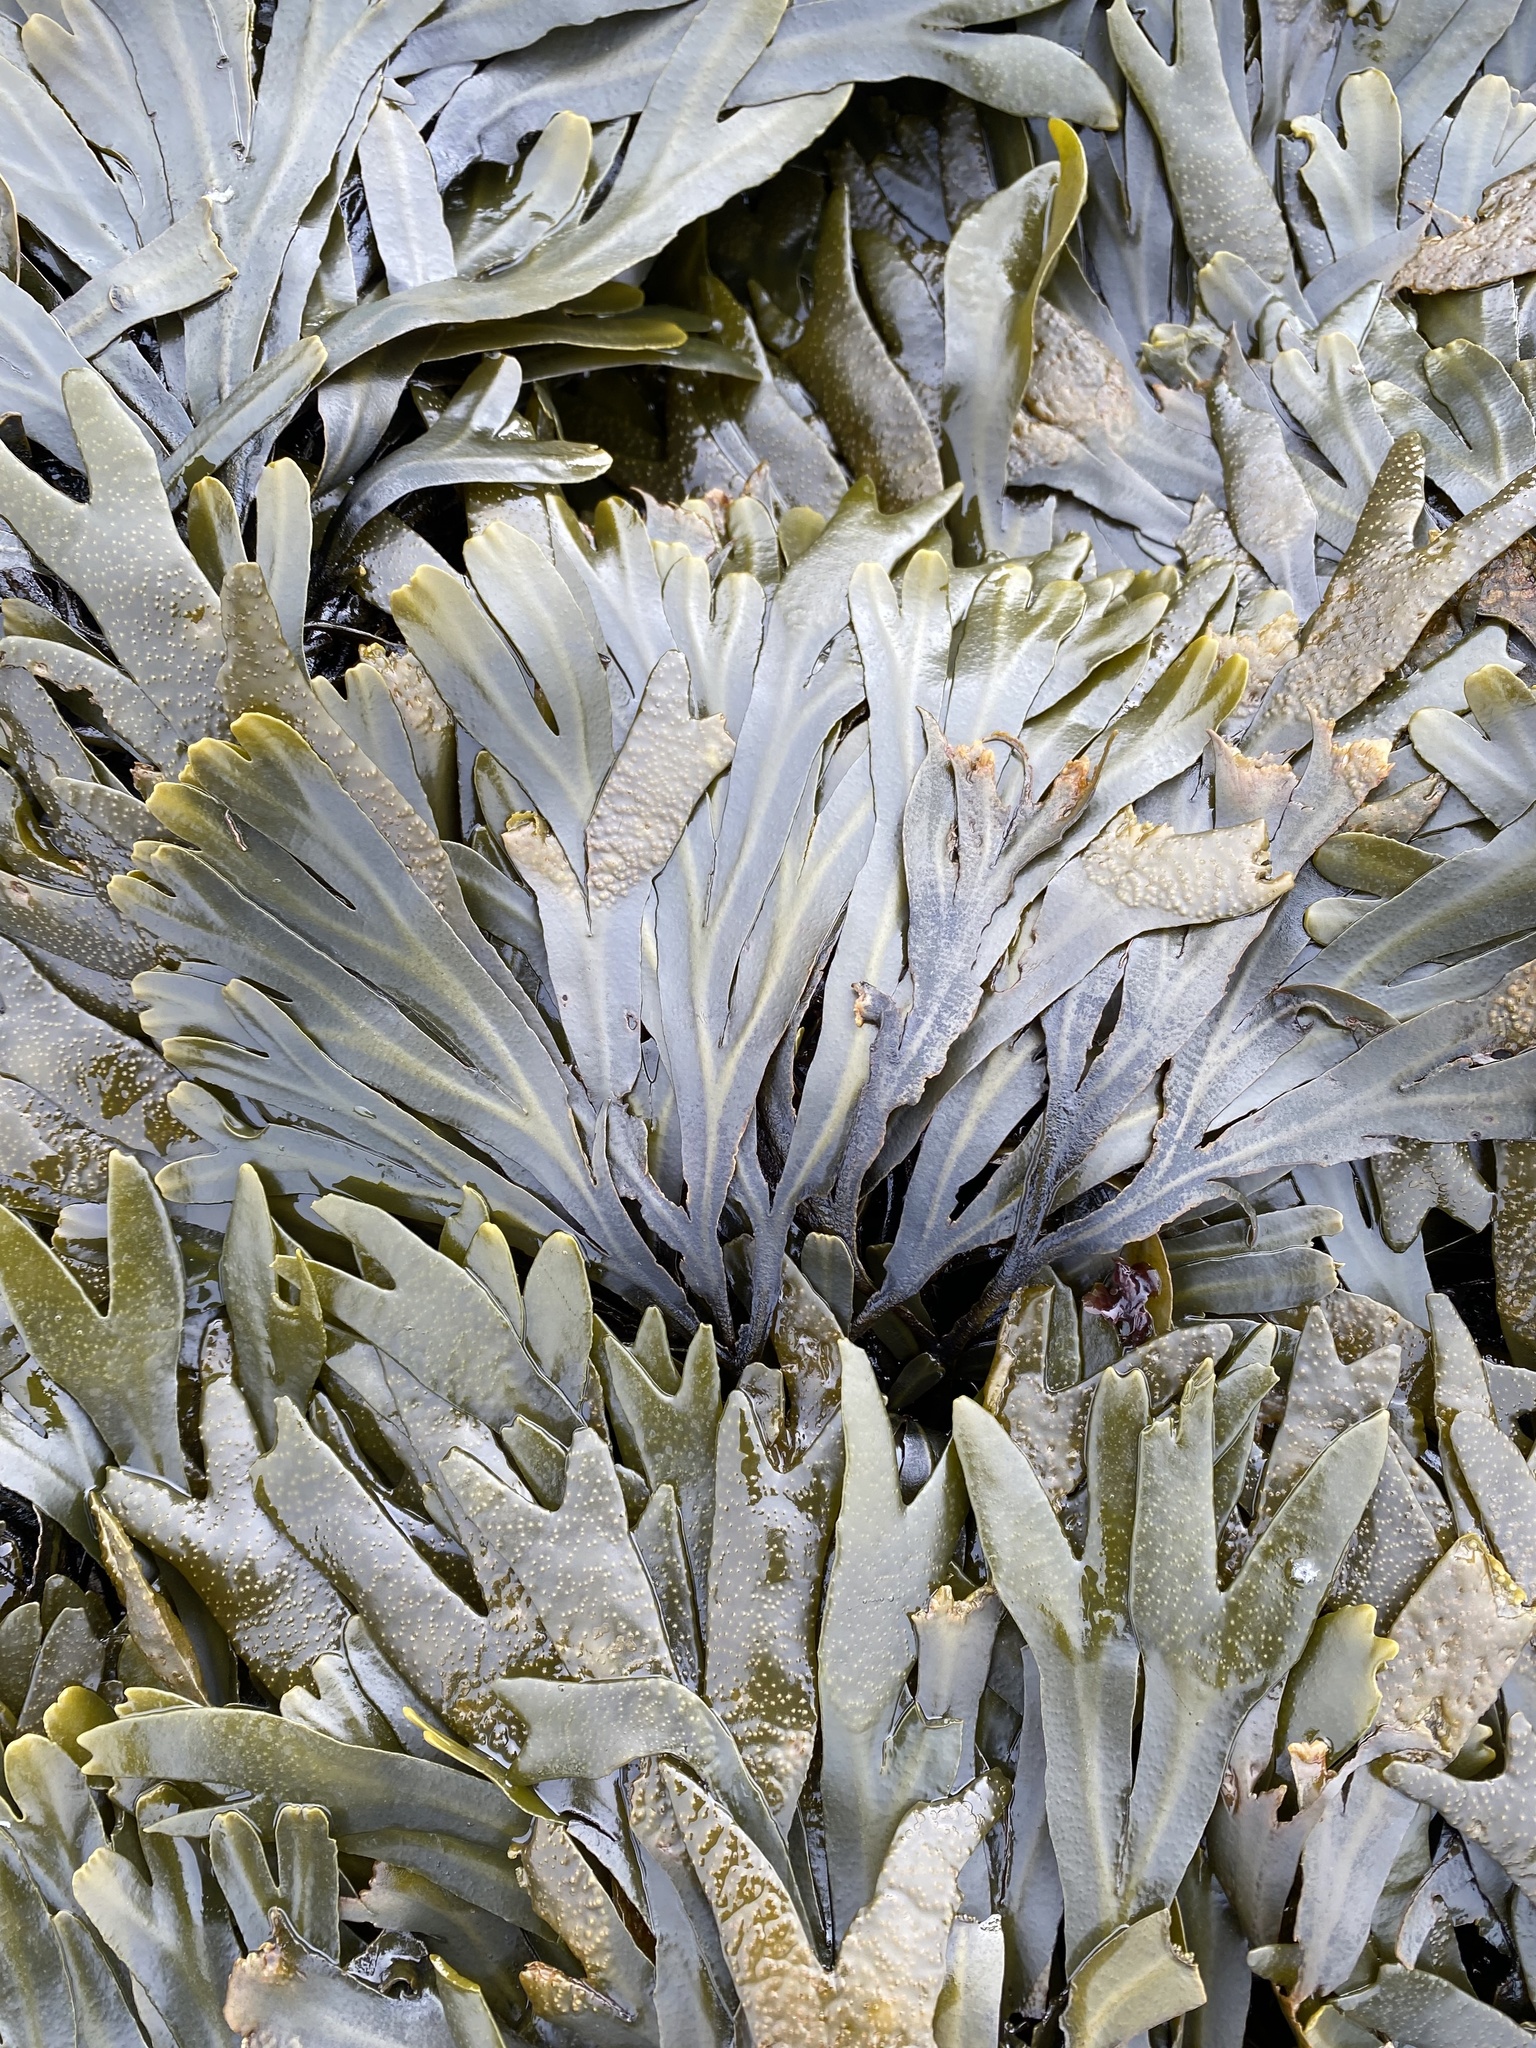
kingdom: Chromista
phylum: Ochrophyta
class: Phaeophyceae
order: Fucales
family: Fucaceae
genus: Fucus
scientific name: Fucus distichus
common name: Rockweed
